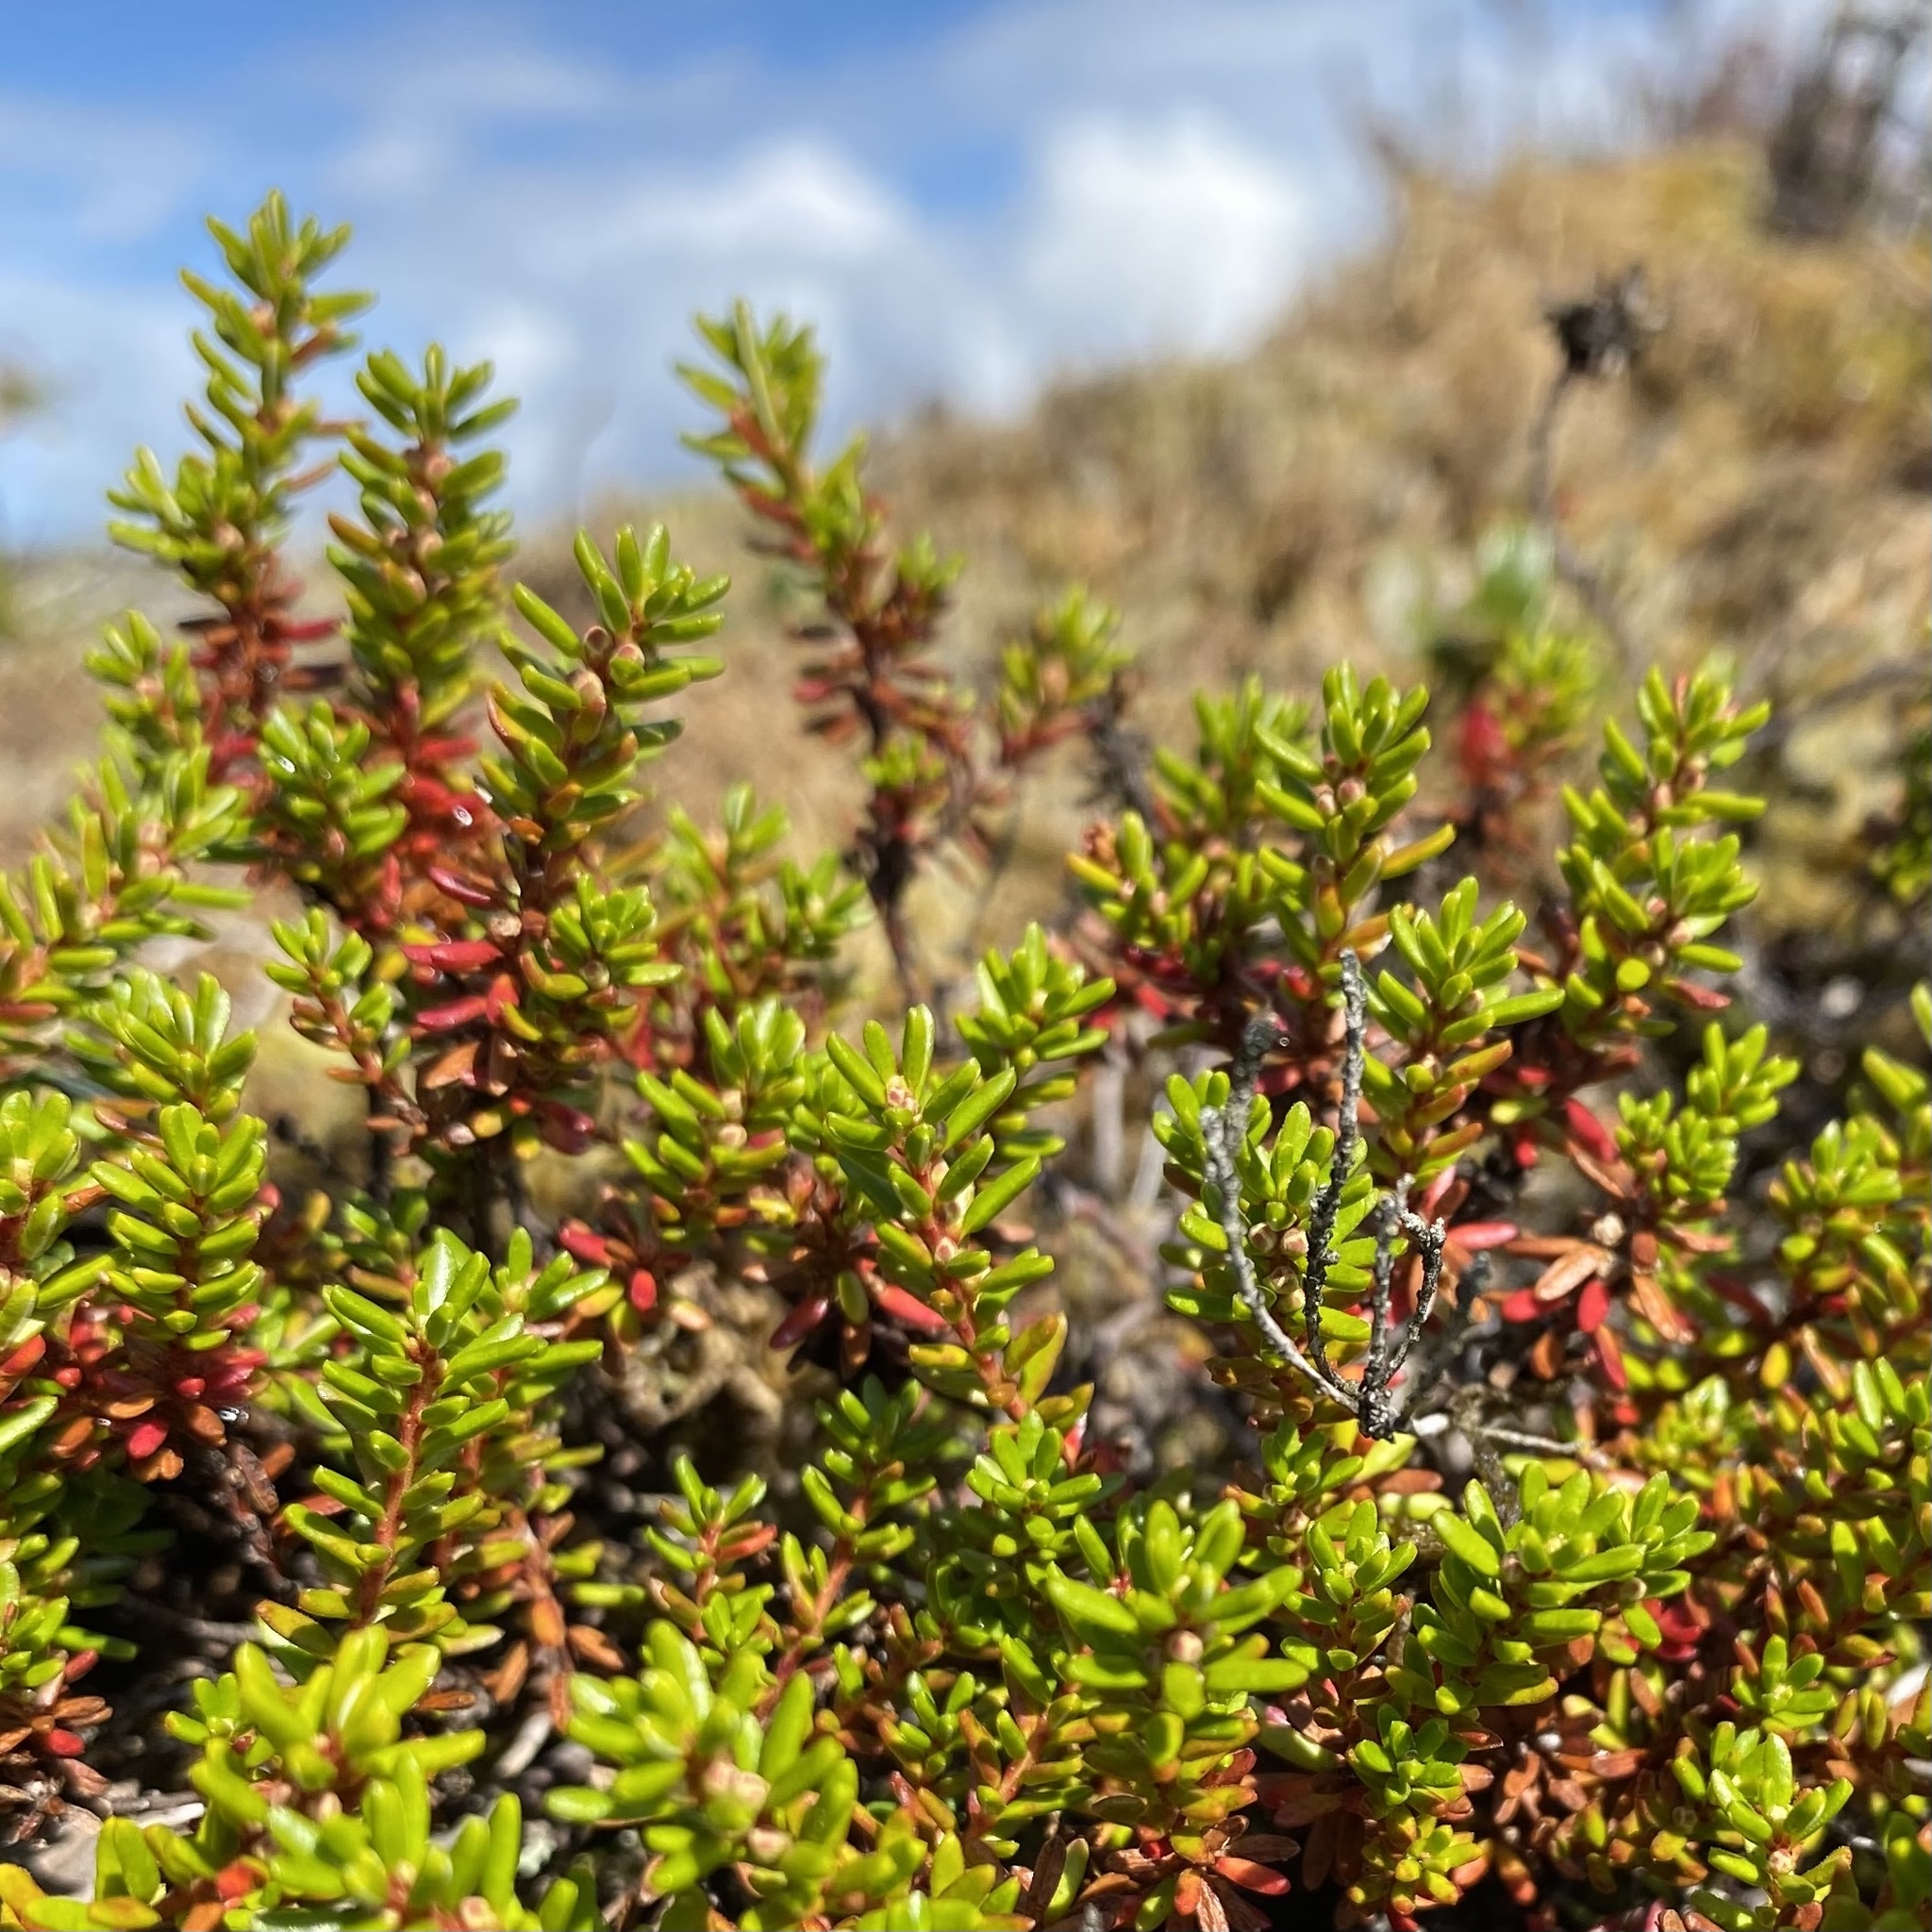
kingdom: Plantae
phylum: Tracheophyta
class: Magnoliopsida
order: Ericales
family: Ericaceae
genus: Empetrum
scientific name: Empetrum nigrum
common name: Black crowberry
